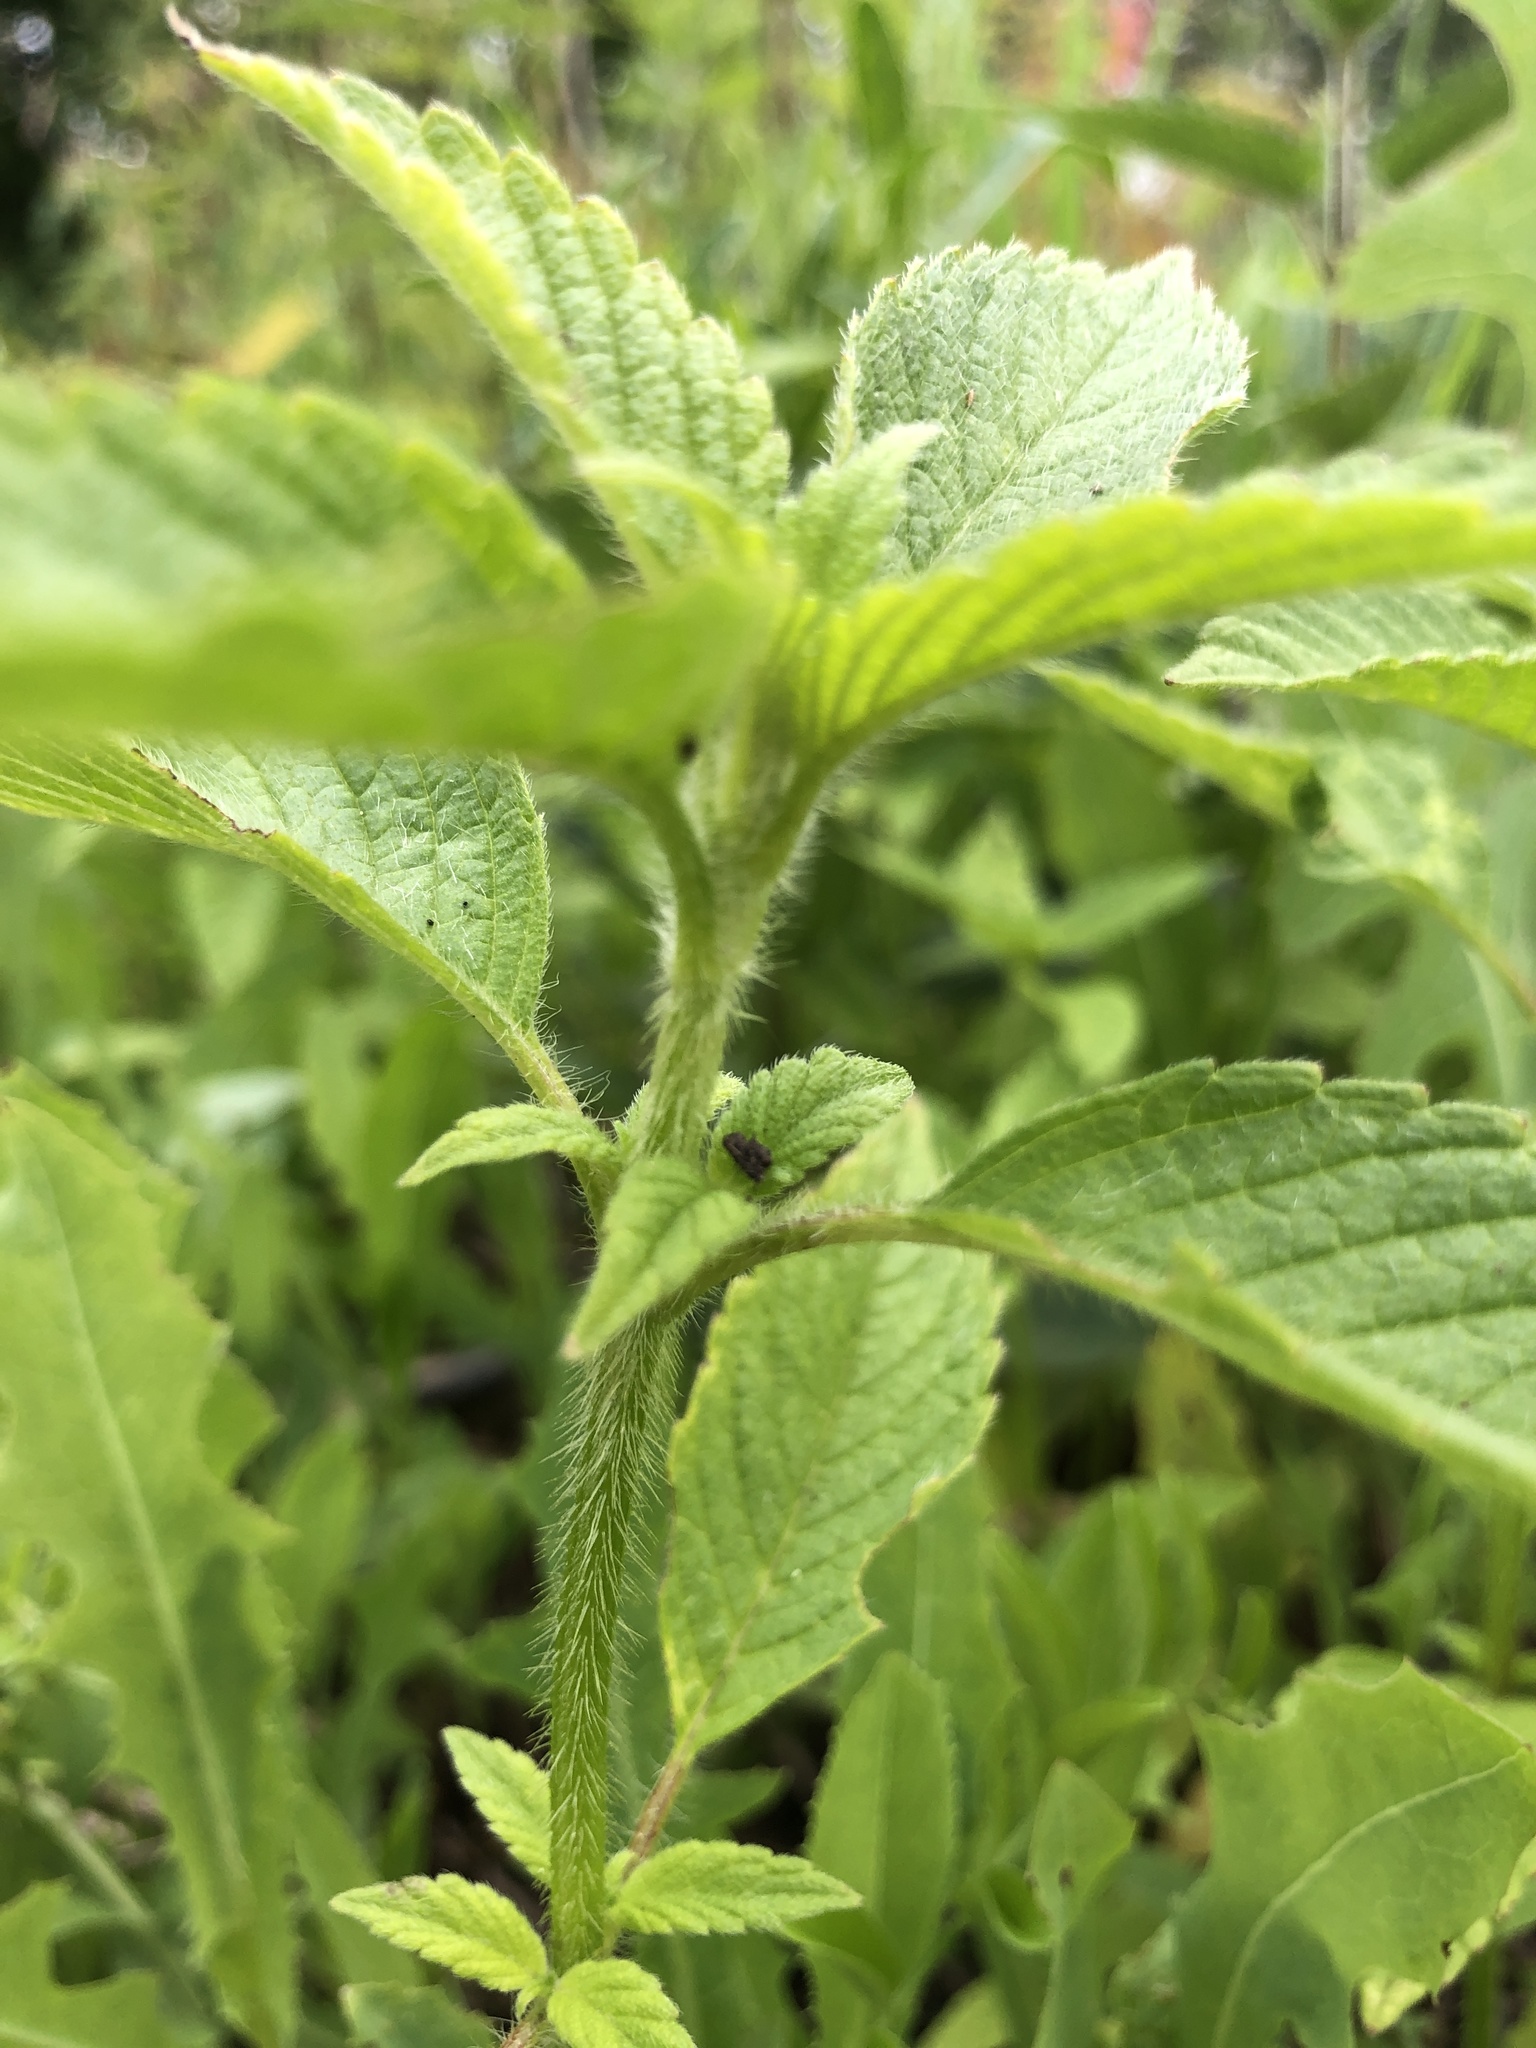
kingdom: Plantae
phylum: Tracheophyta
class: Magnoliopsida
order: Lamiales
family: Lamiaceae
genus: Galeopsis
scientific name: Galeopsis
